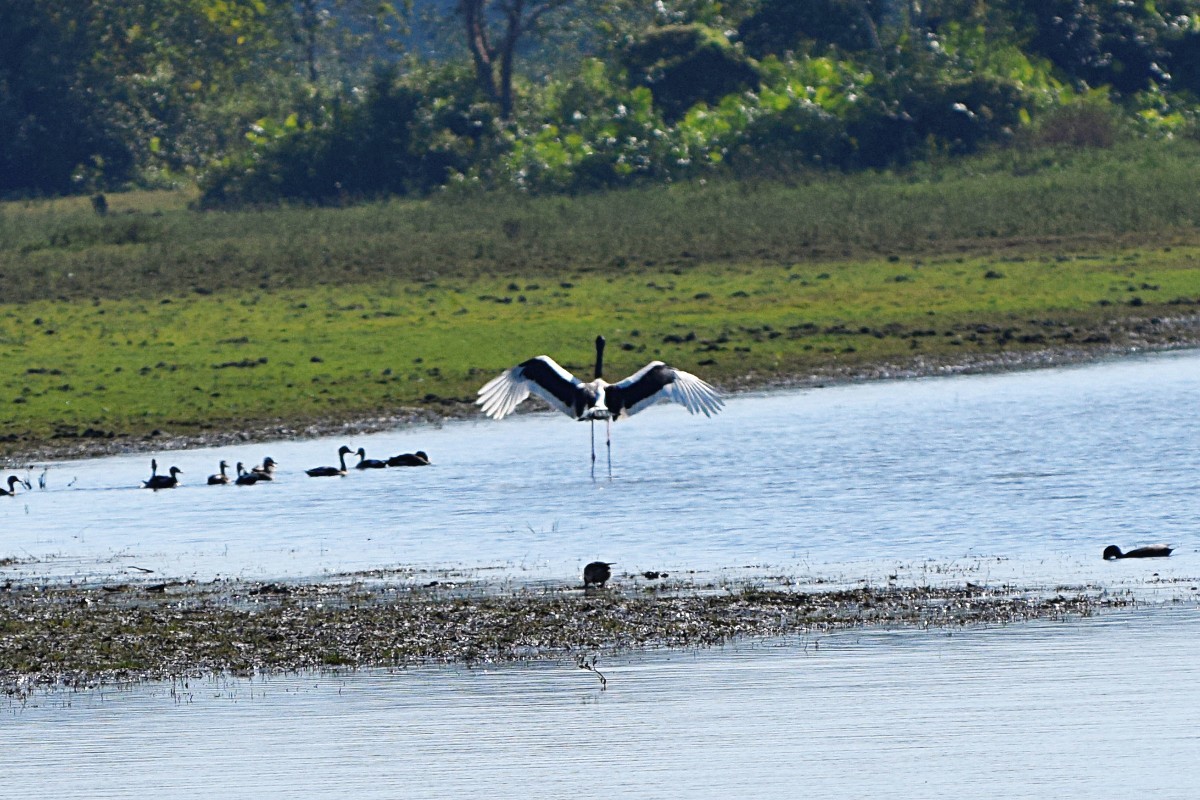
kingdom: Animalia
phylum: Chordata
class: Aves
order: Ciconiiformes
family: Ciconiidae
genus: Ephippiorhynchus
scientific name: Ephippiorhynchus asiaticus
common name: Black-necked stork
